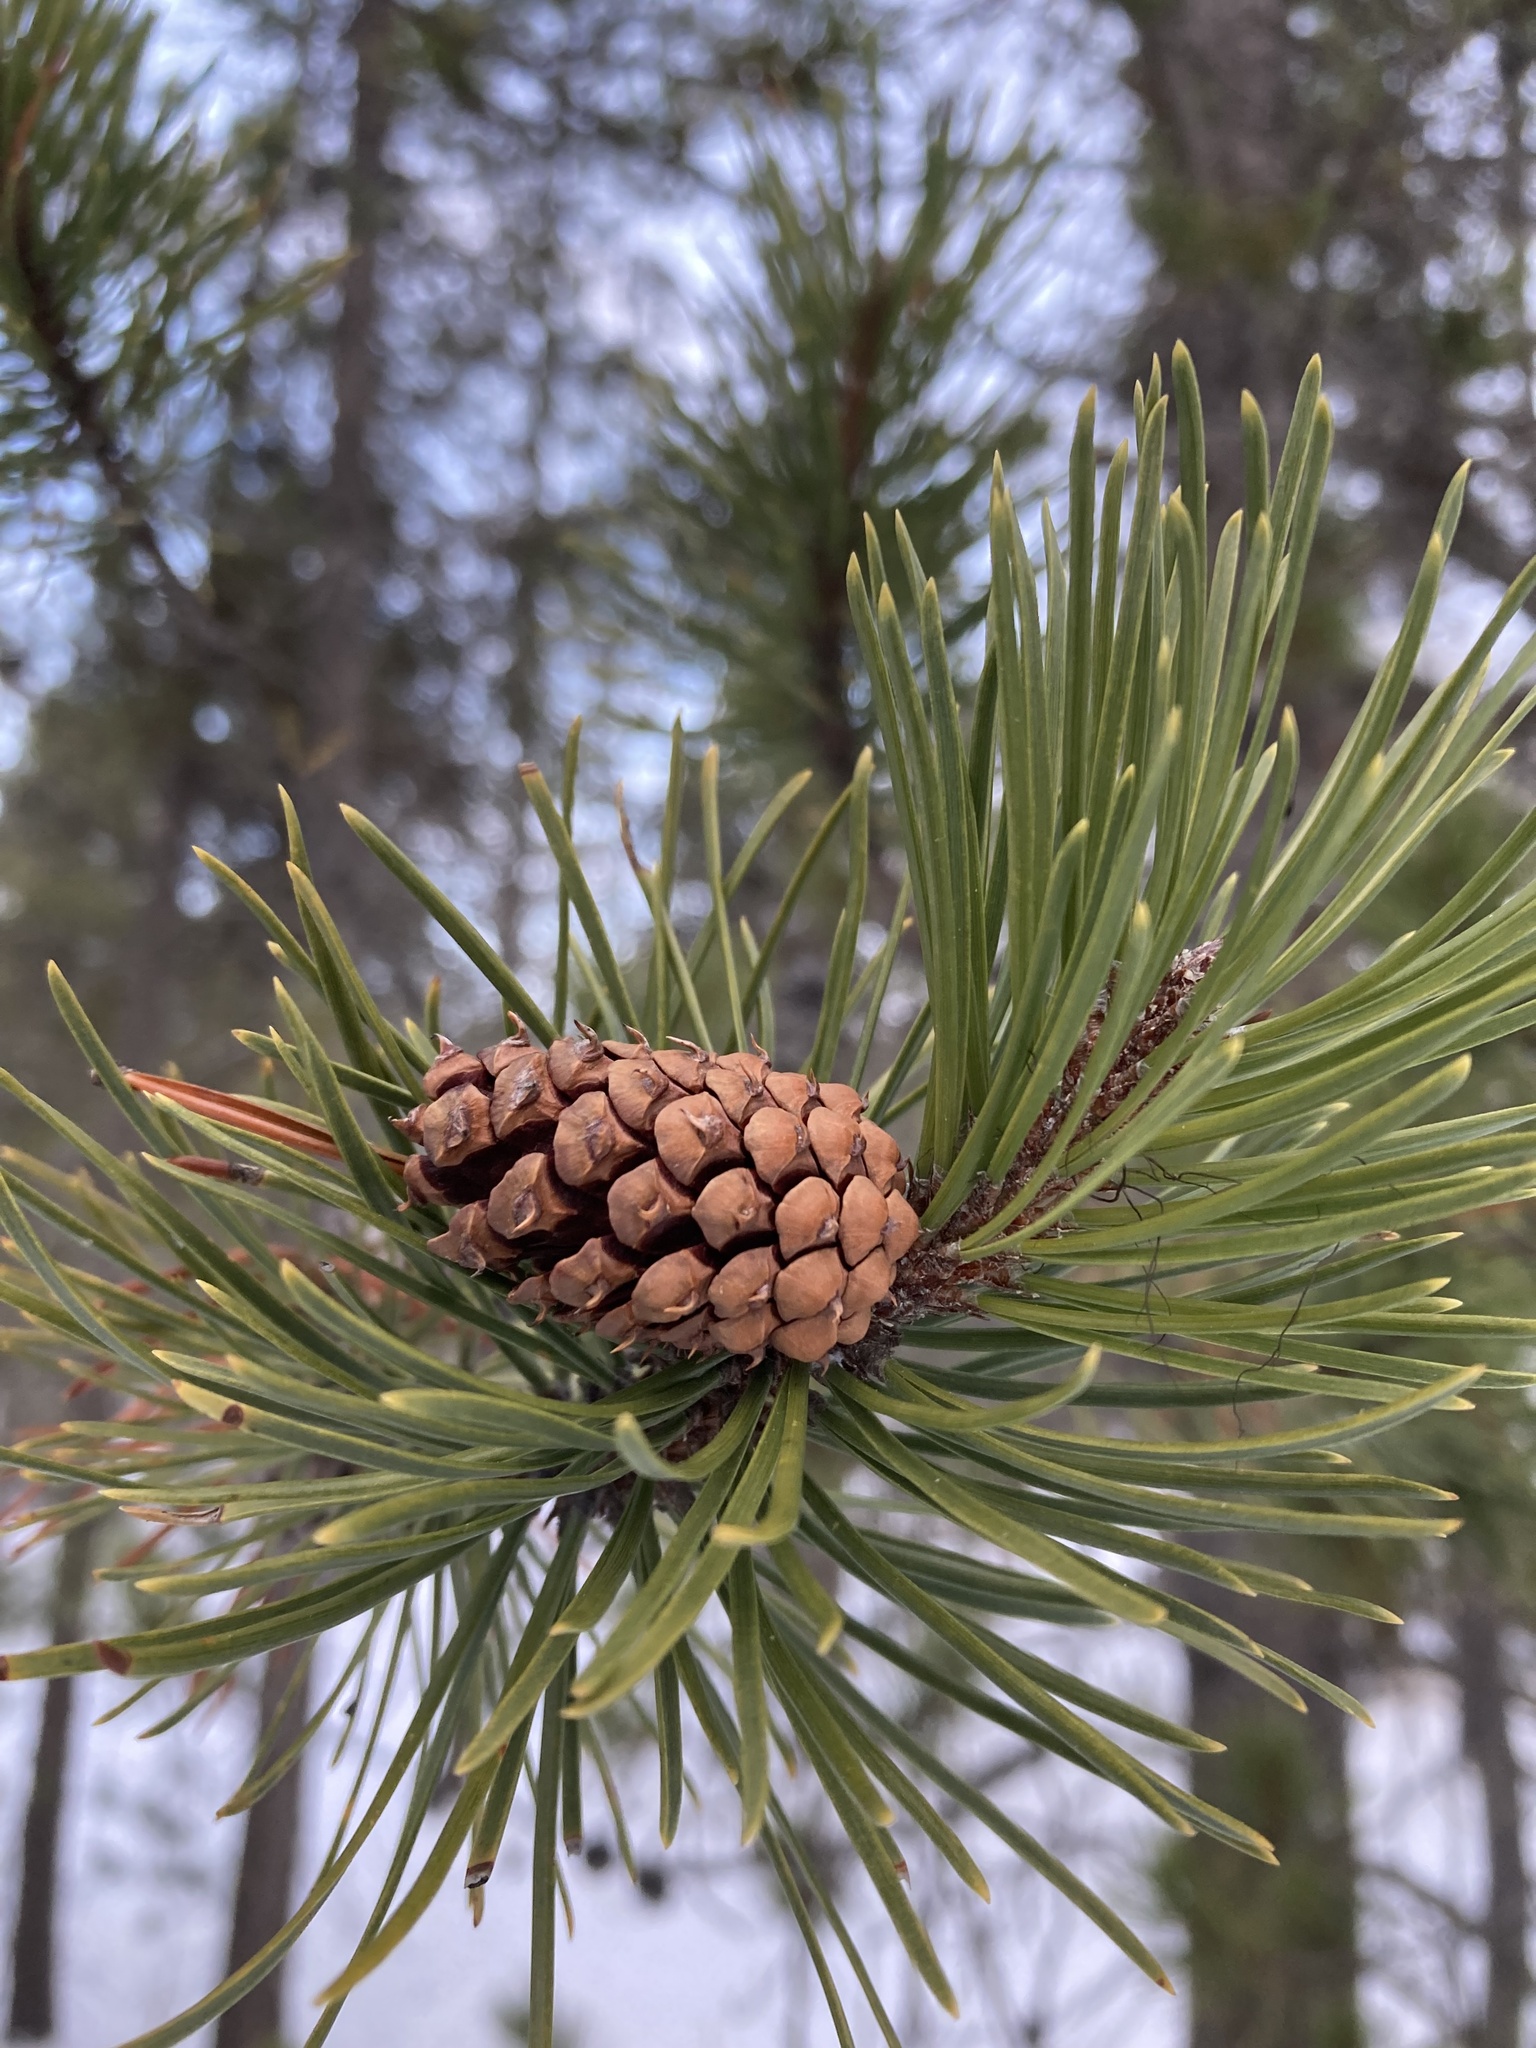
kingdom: Plantae
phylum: Tracheophyta
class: Pinopsida
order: Pinales
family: Pinaceae
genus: Pinus
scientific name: Pinus contorta
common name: Lodgepole pine
